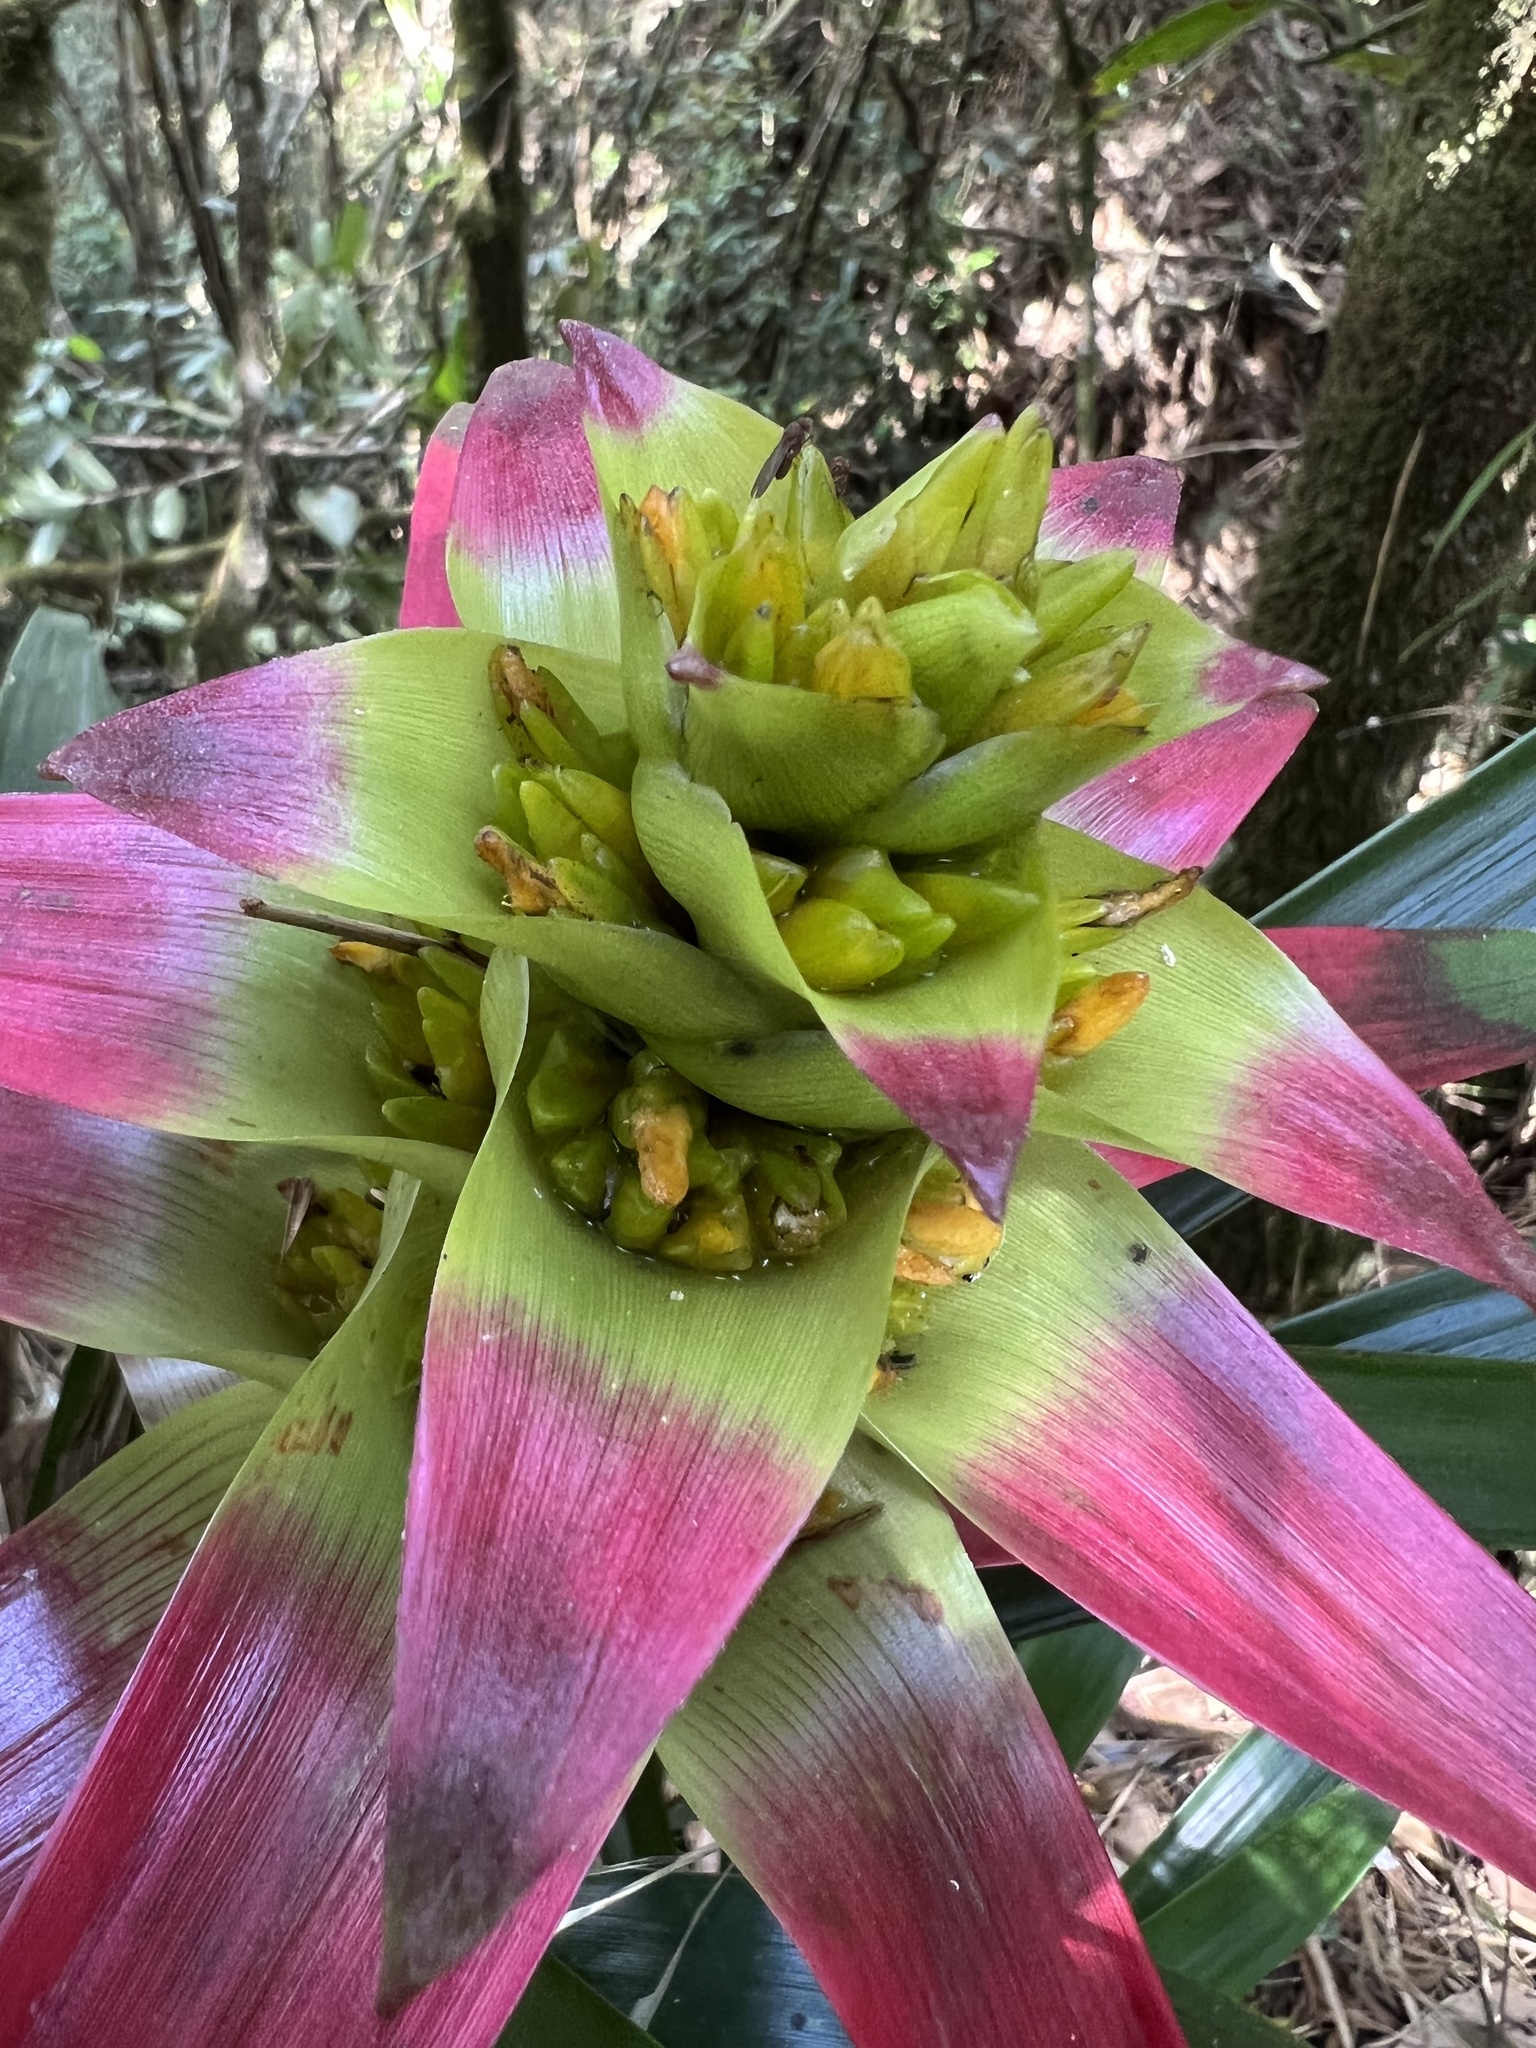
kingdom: Plantae
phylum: Tracheophyta
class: Liliopsida
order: Poales
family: Bromeliaceae
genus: Guzmania
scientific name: Guzmania squarrosa
